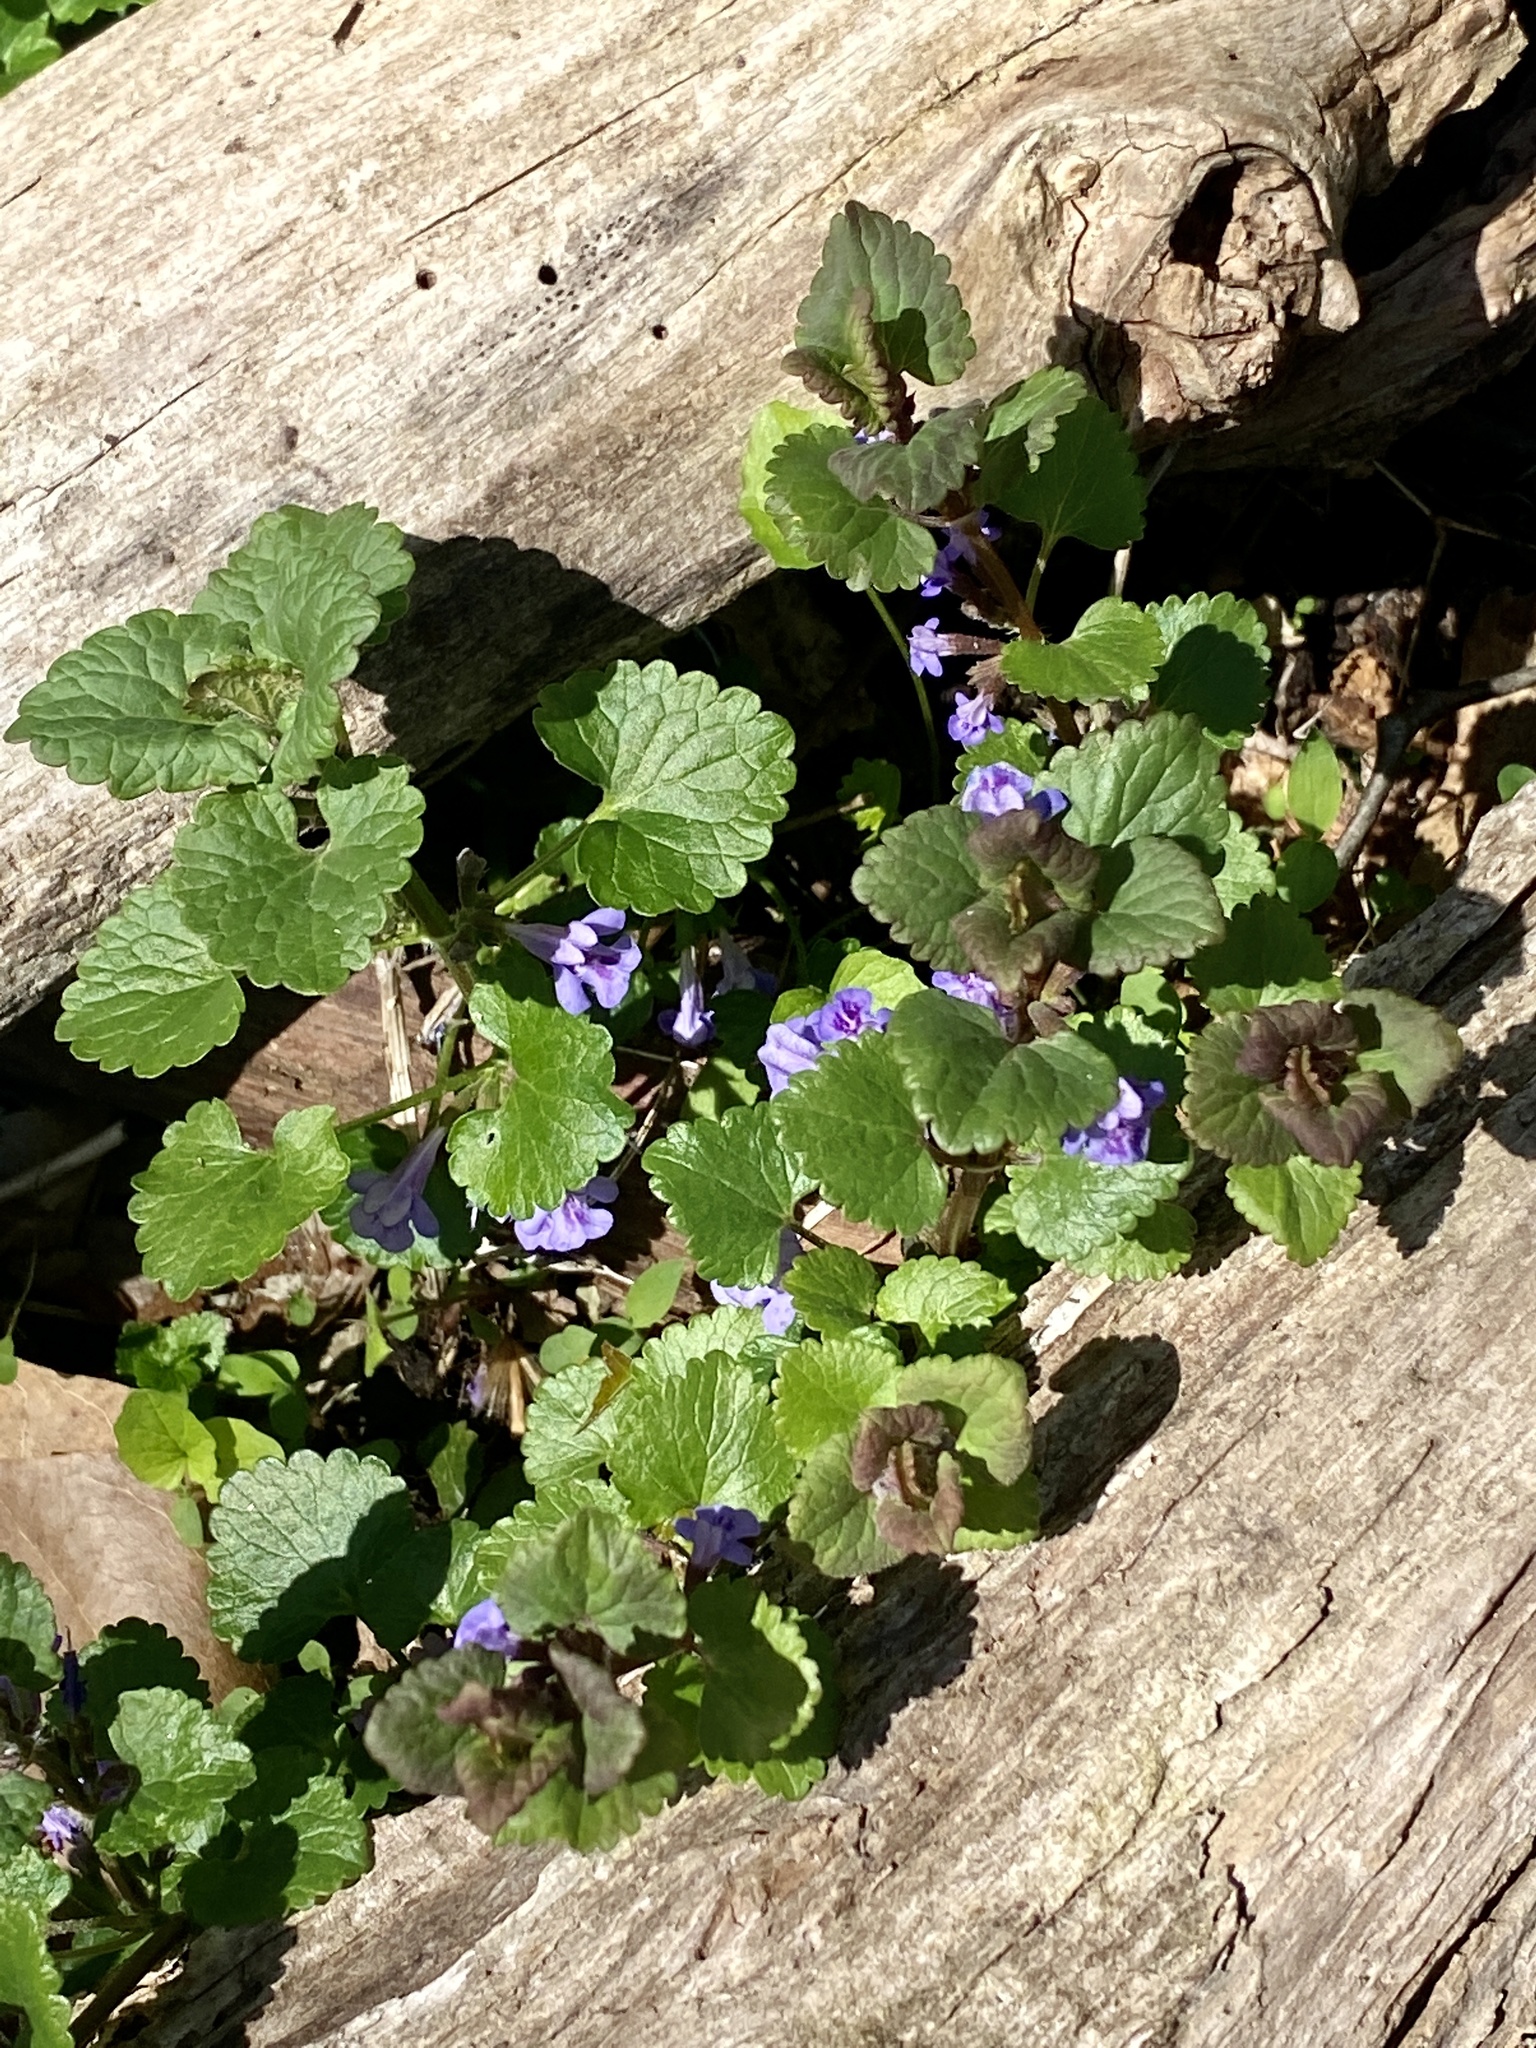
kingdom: Plantae
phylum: Tracheophyta
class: Magnoliopsida
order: Lamiales
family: Lamiaceae
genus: Glechoma
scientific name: Glechoma hederacea
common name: Ground ivy
